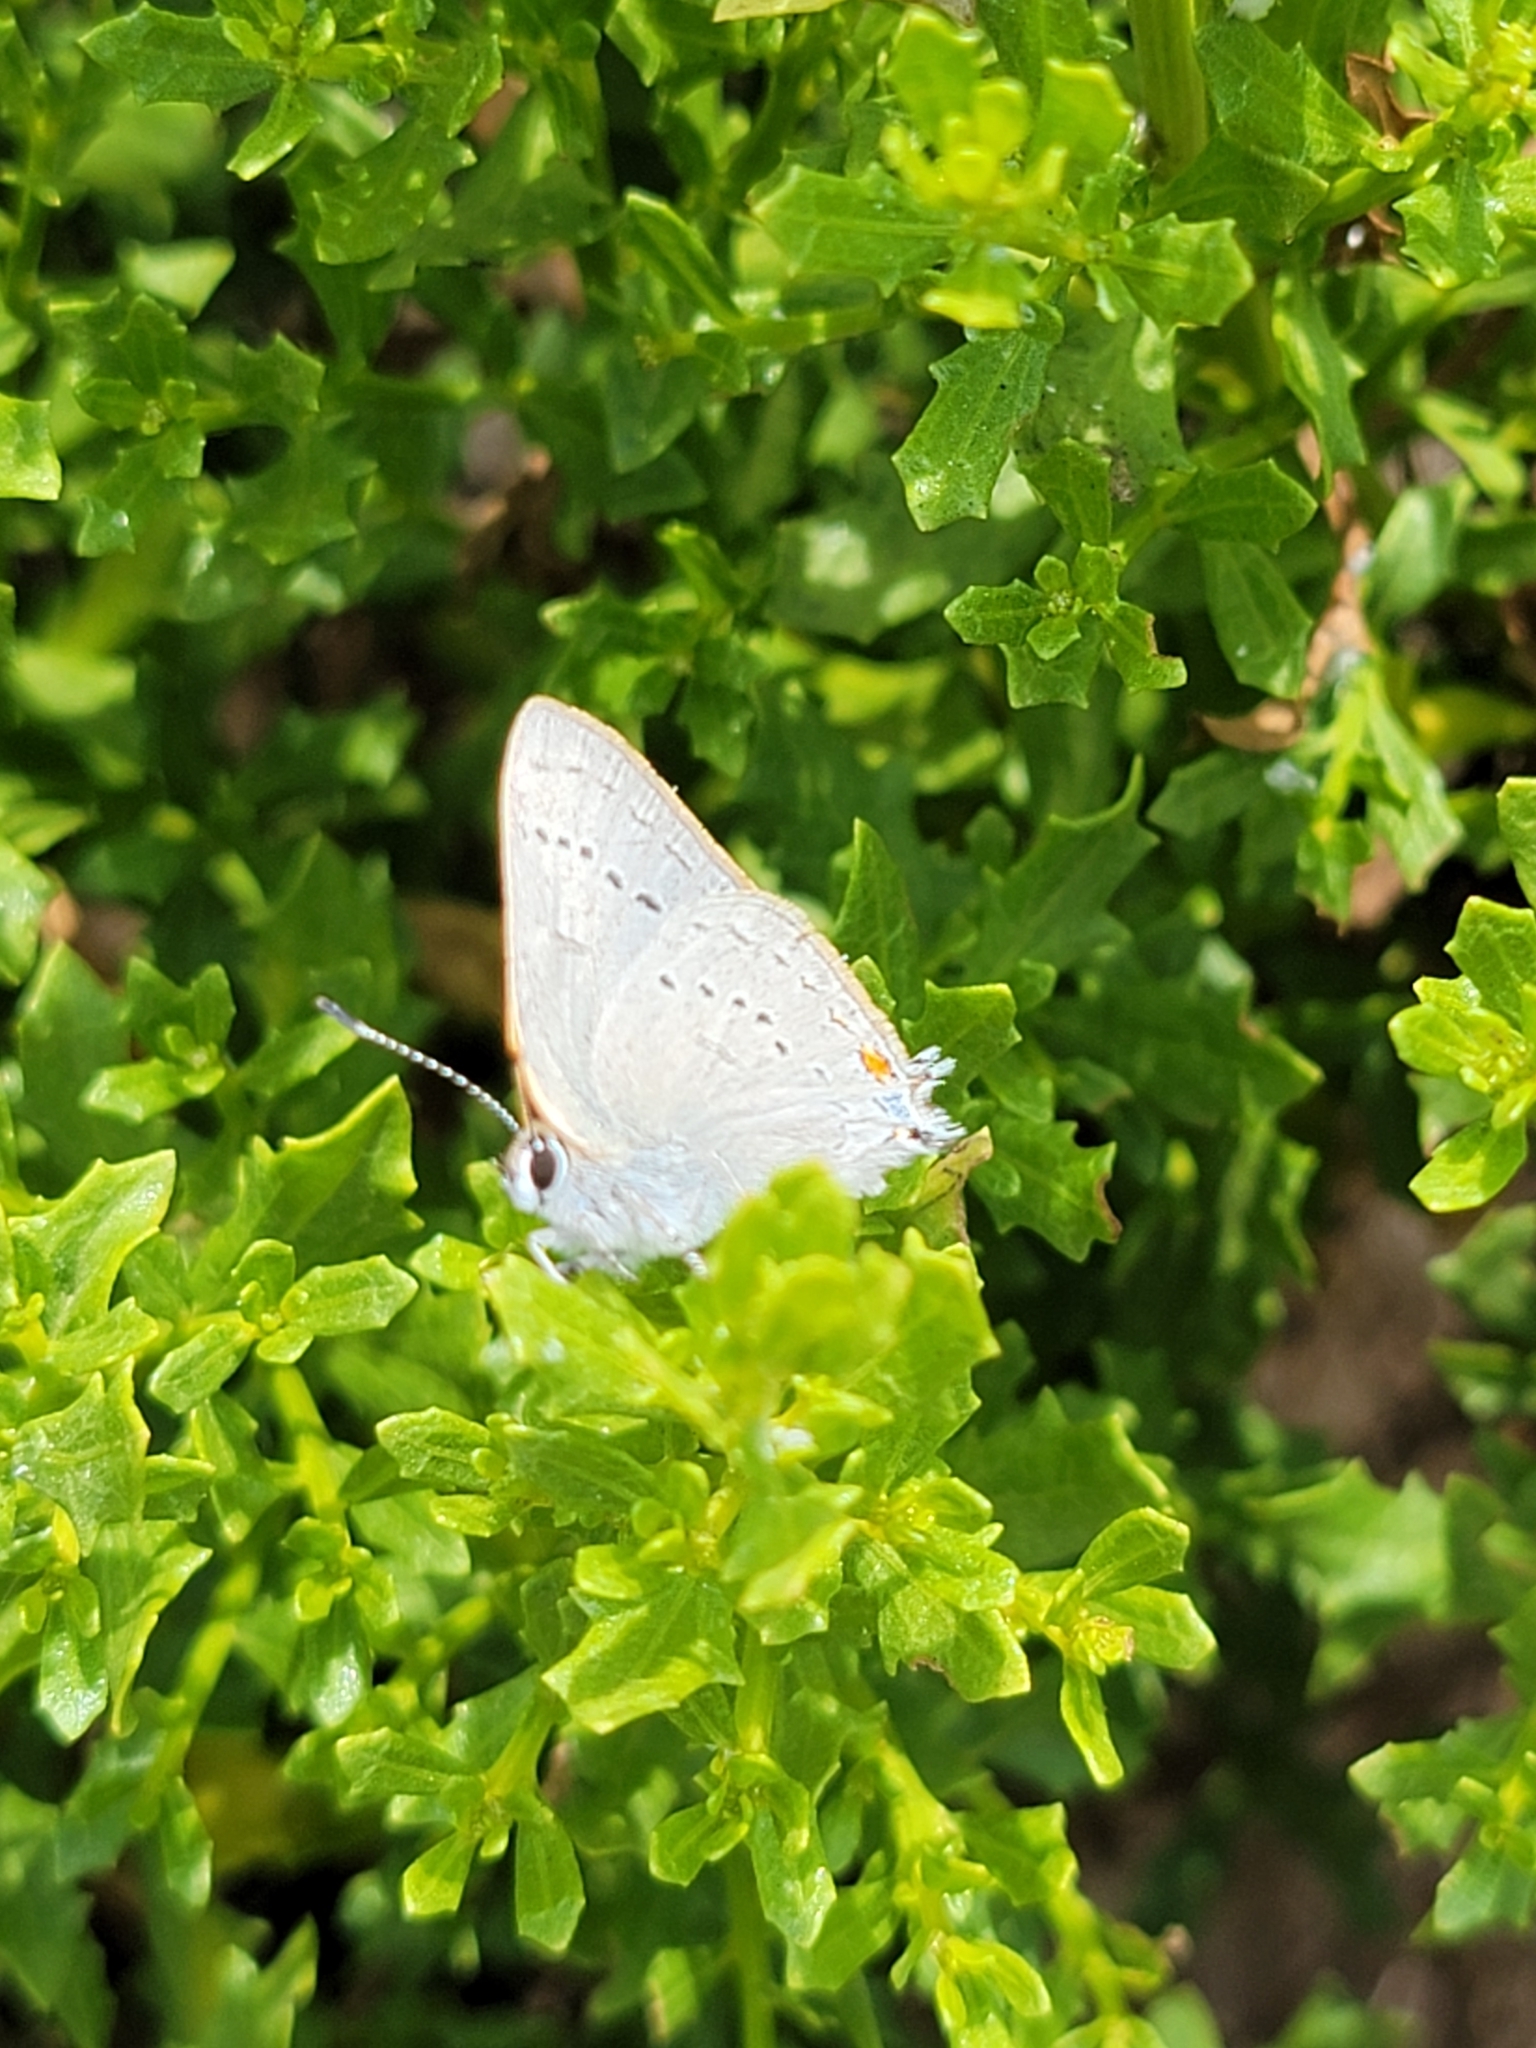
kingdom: Animalia
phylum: Arthropoda
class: Insecta
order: Lepidoptera
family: Lycaenidae
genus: Strymon
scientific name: Strymon sylvinus
